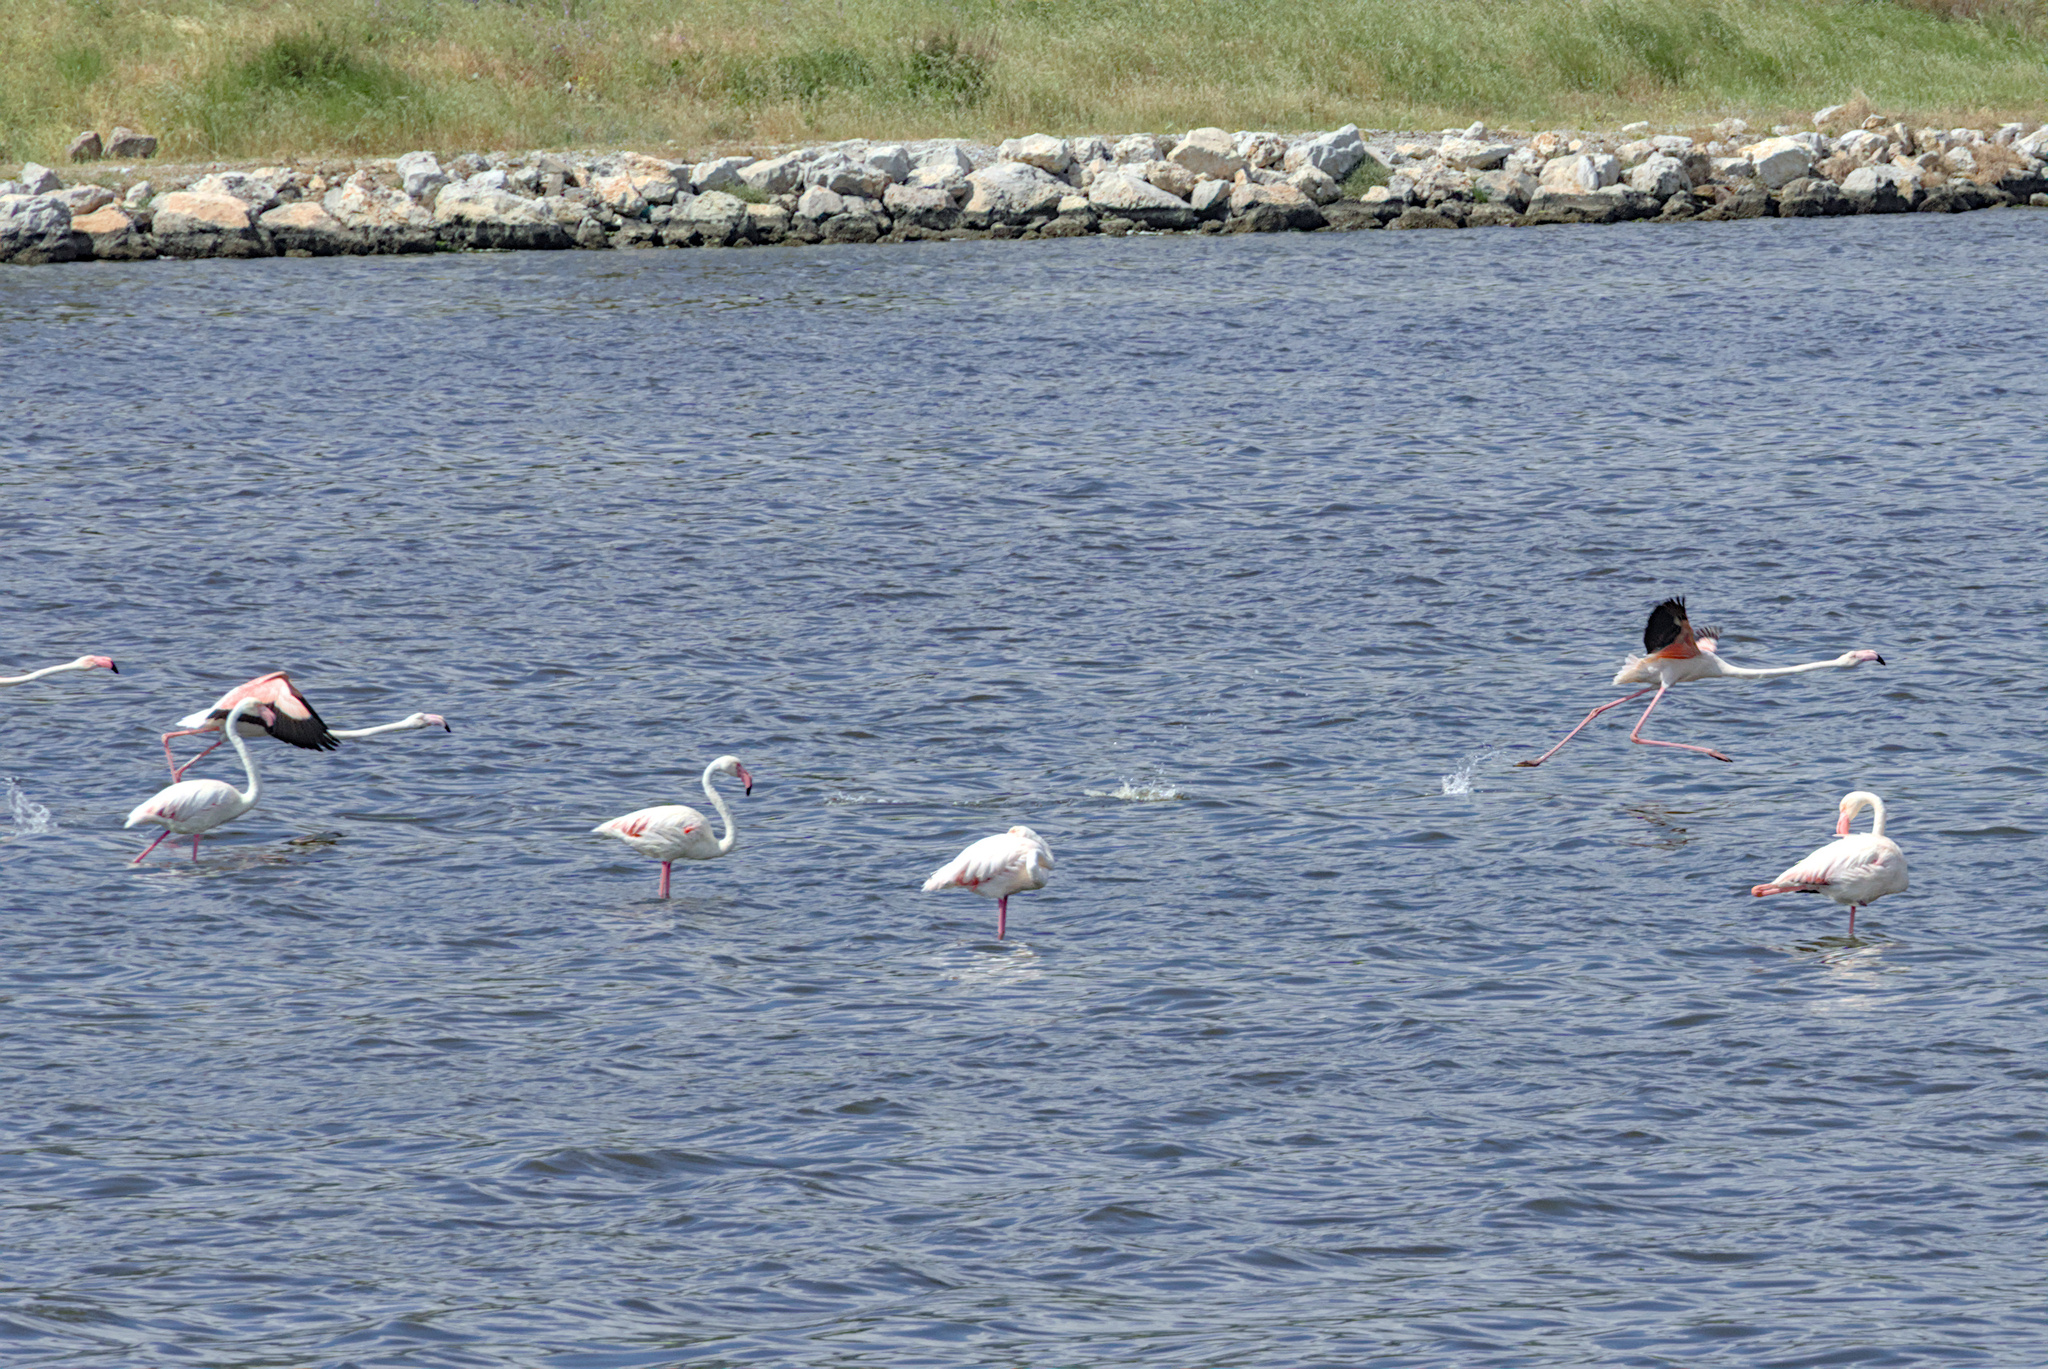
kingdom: Animalia
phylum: Chordata
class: Aves
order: Phoenicopteriformes
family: Phoenicopteridae
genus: Phoenicopterus
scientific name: Phoenicopterus roseus
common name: Greater flamingo
